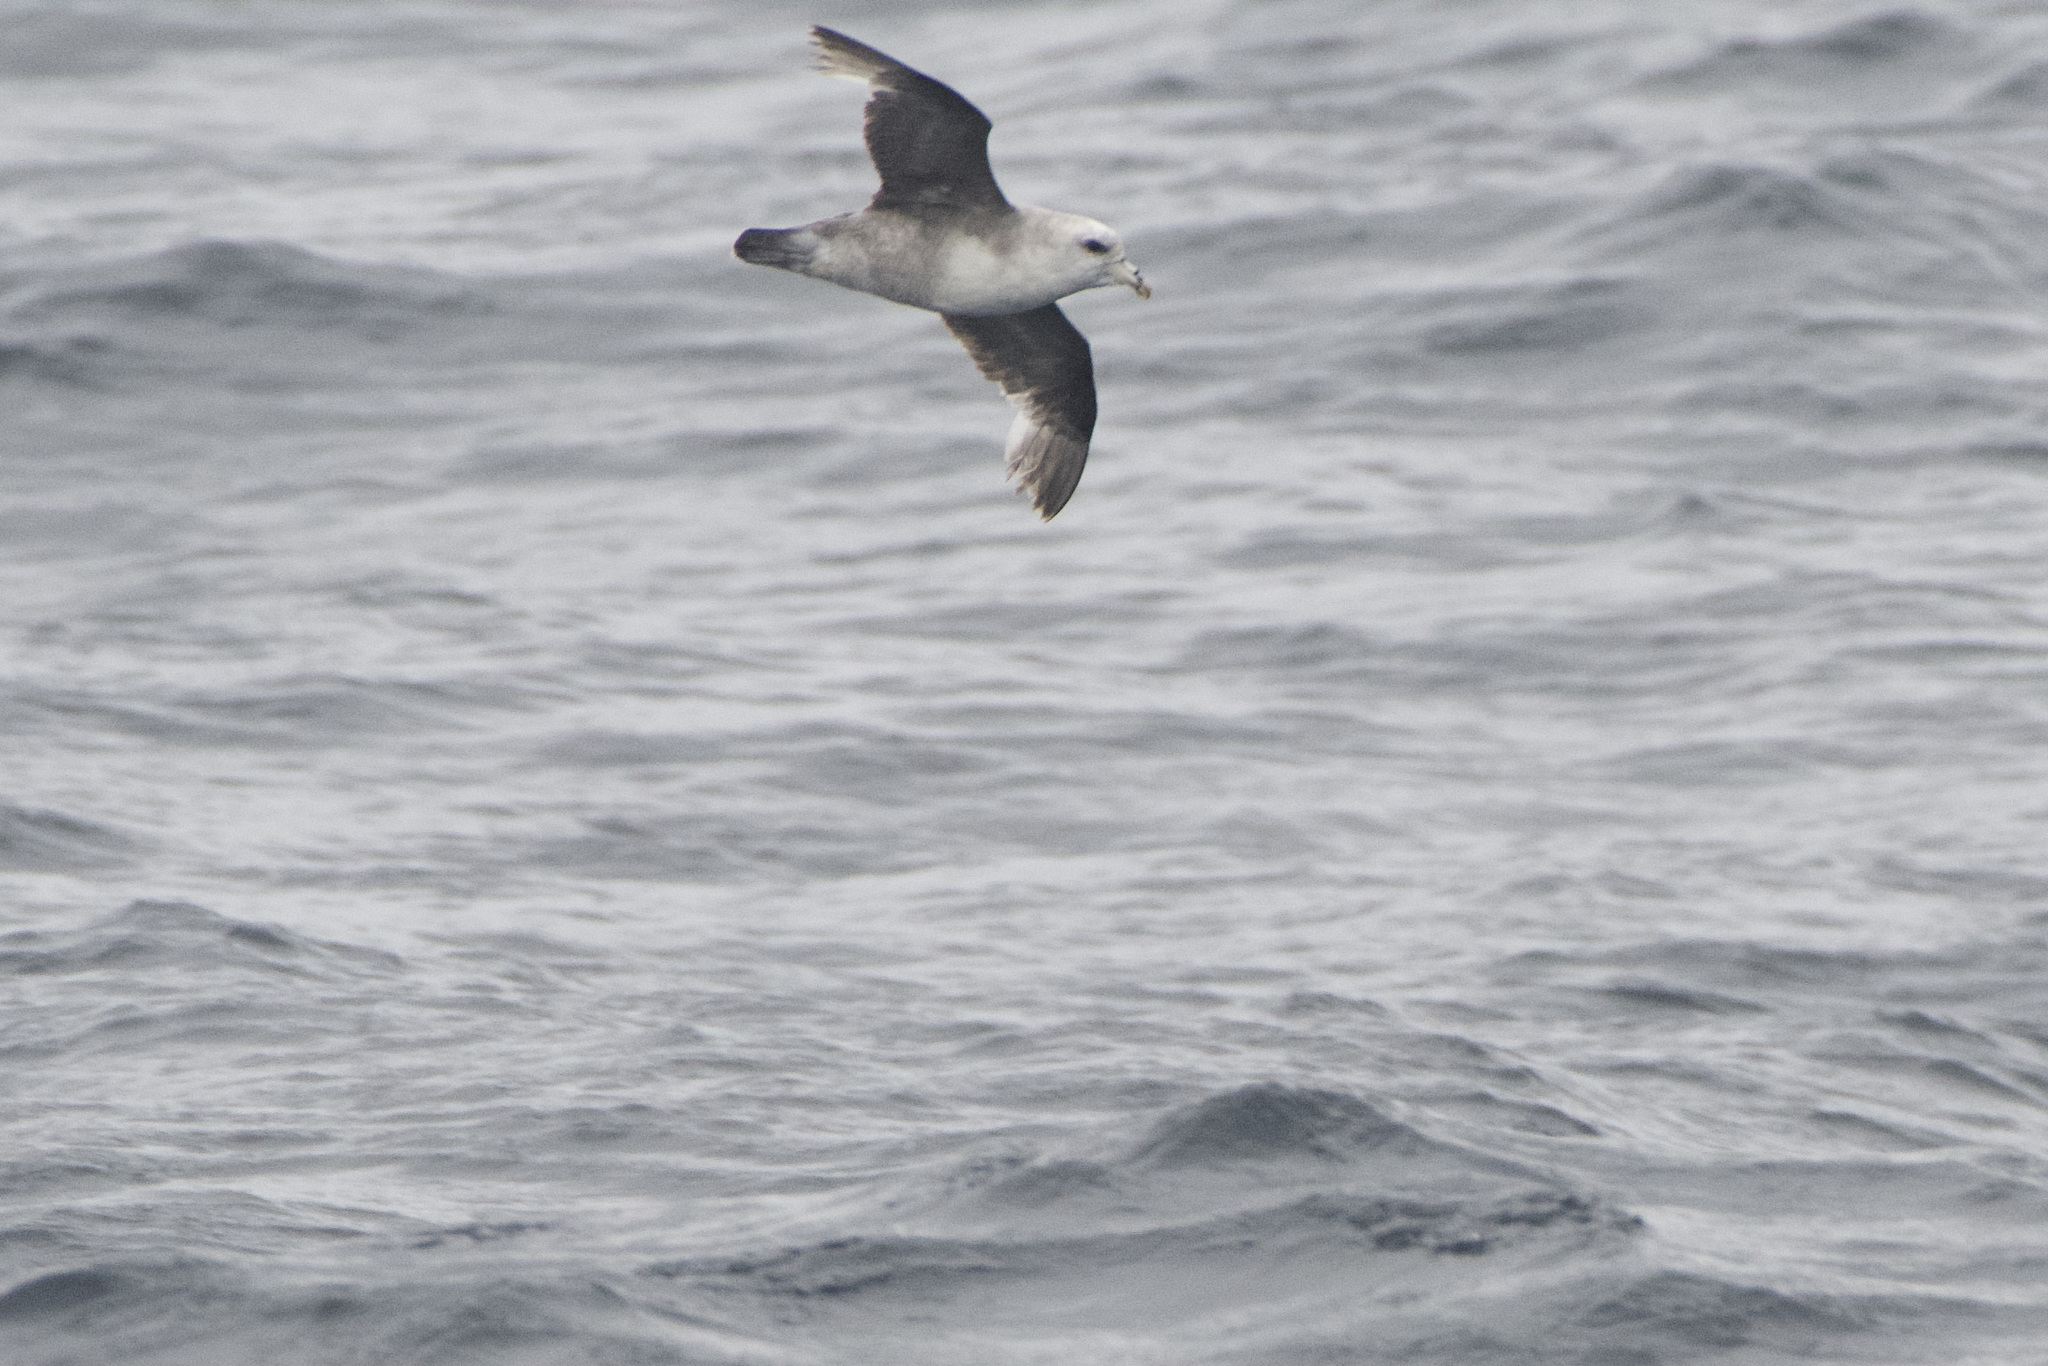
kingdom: Animalia
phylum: Chordata
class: Aves
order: Procellariiformes
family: Procellariidae
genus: Fulmarus
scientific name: Fulmarus glacialis
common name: Northern fulmar
